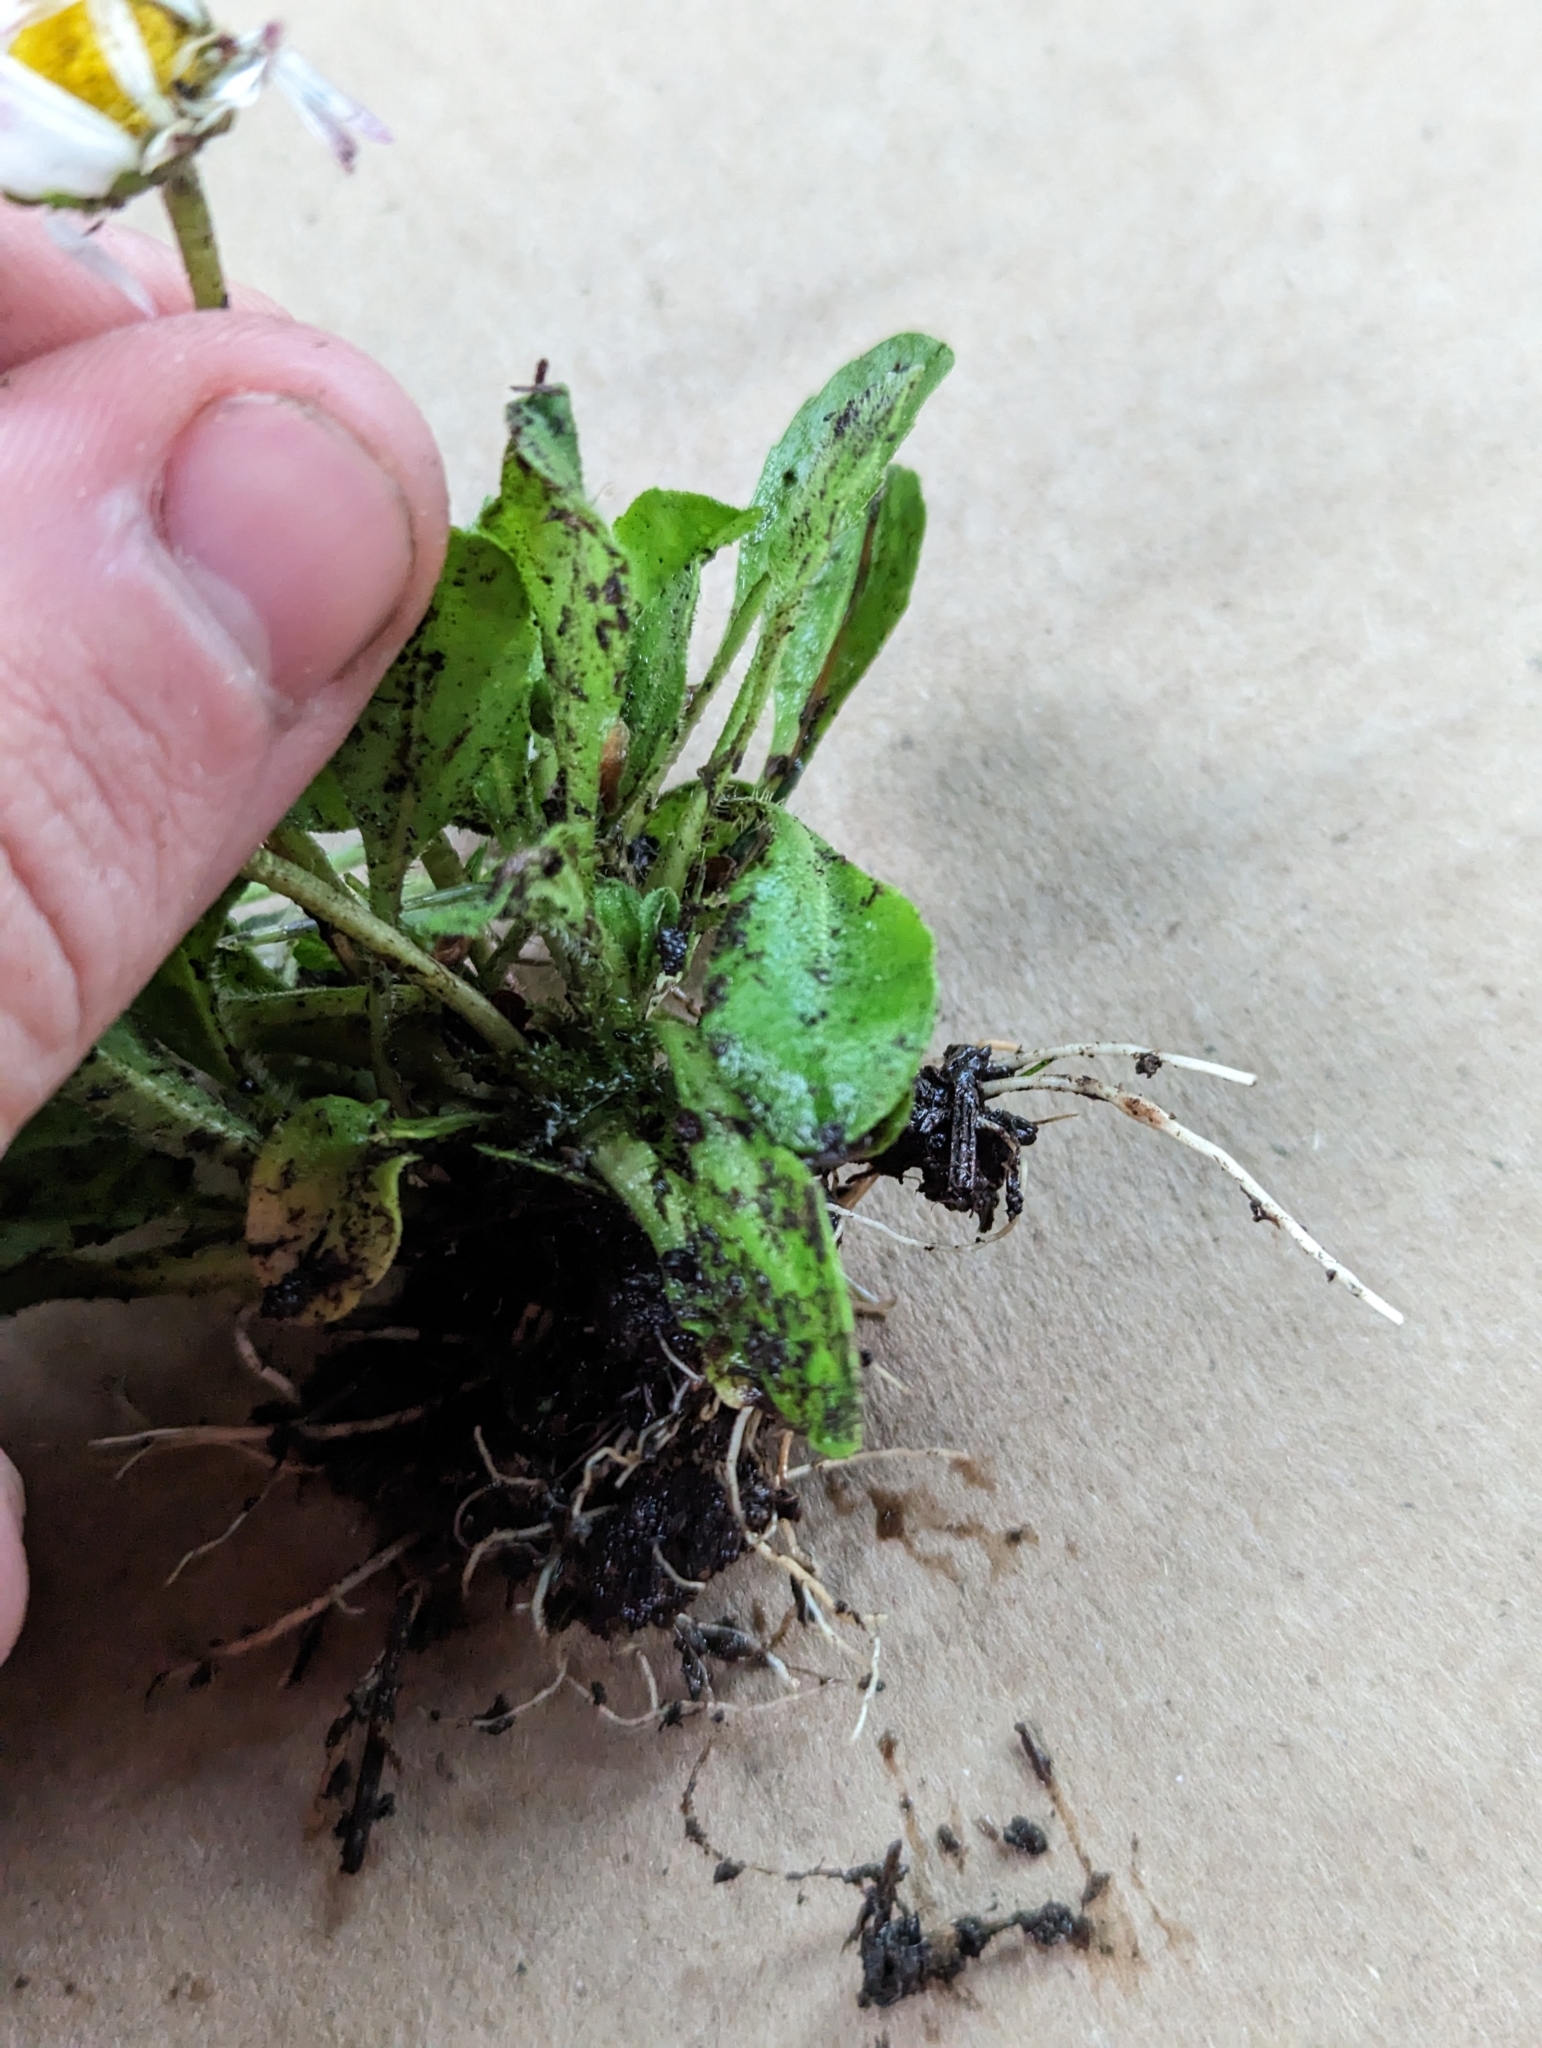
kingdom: Plantae
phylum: Tracheophyta
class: Magnoliopsida
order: Asterales
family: Asteraceae
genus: Bellis
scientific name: Bellis perennis
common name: Lawndaisy
